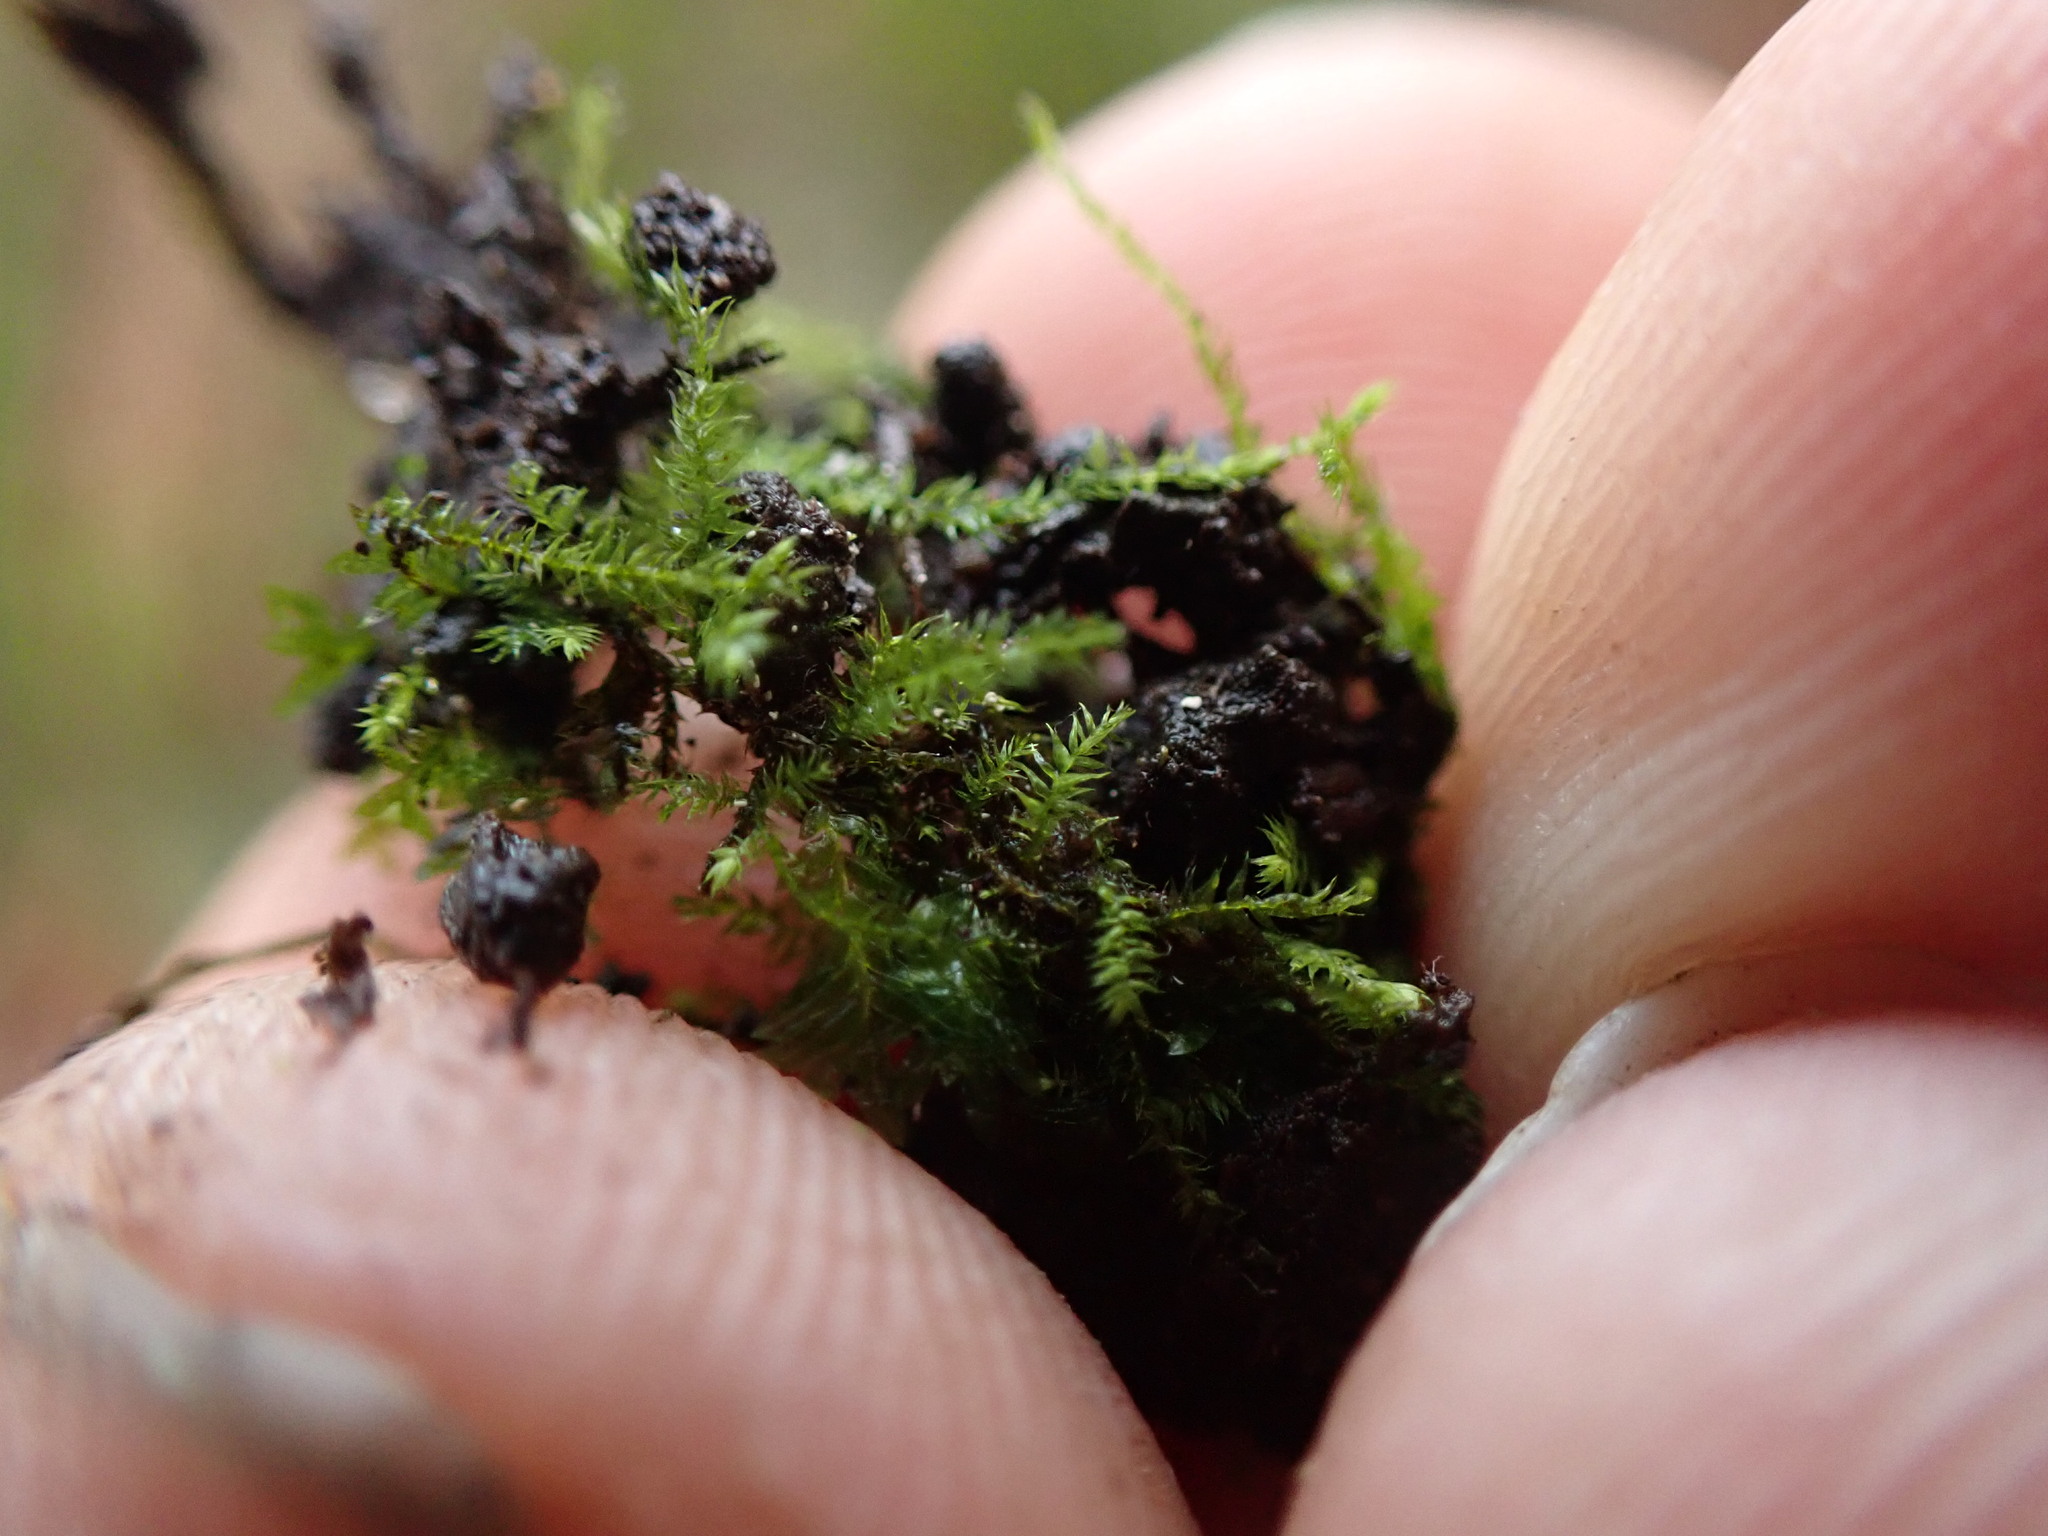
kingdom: Plantae
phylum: Bryophyta
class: Bryopsida
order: Hypnales
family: Plagiotheciaceae
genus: Pseudotaxiphyllum
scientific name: Pseudotaxiphyllum elegans
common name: Elegant silk moss
